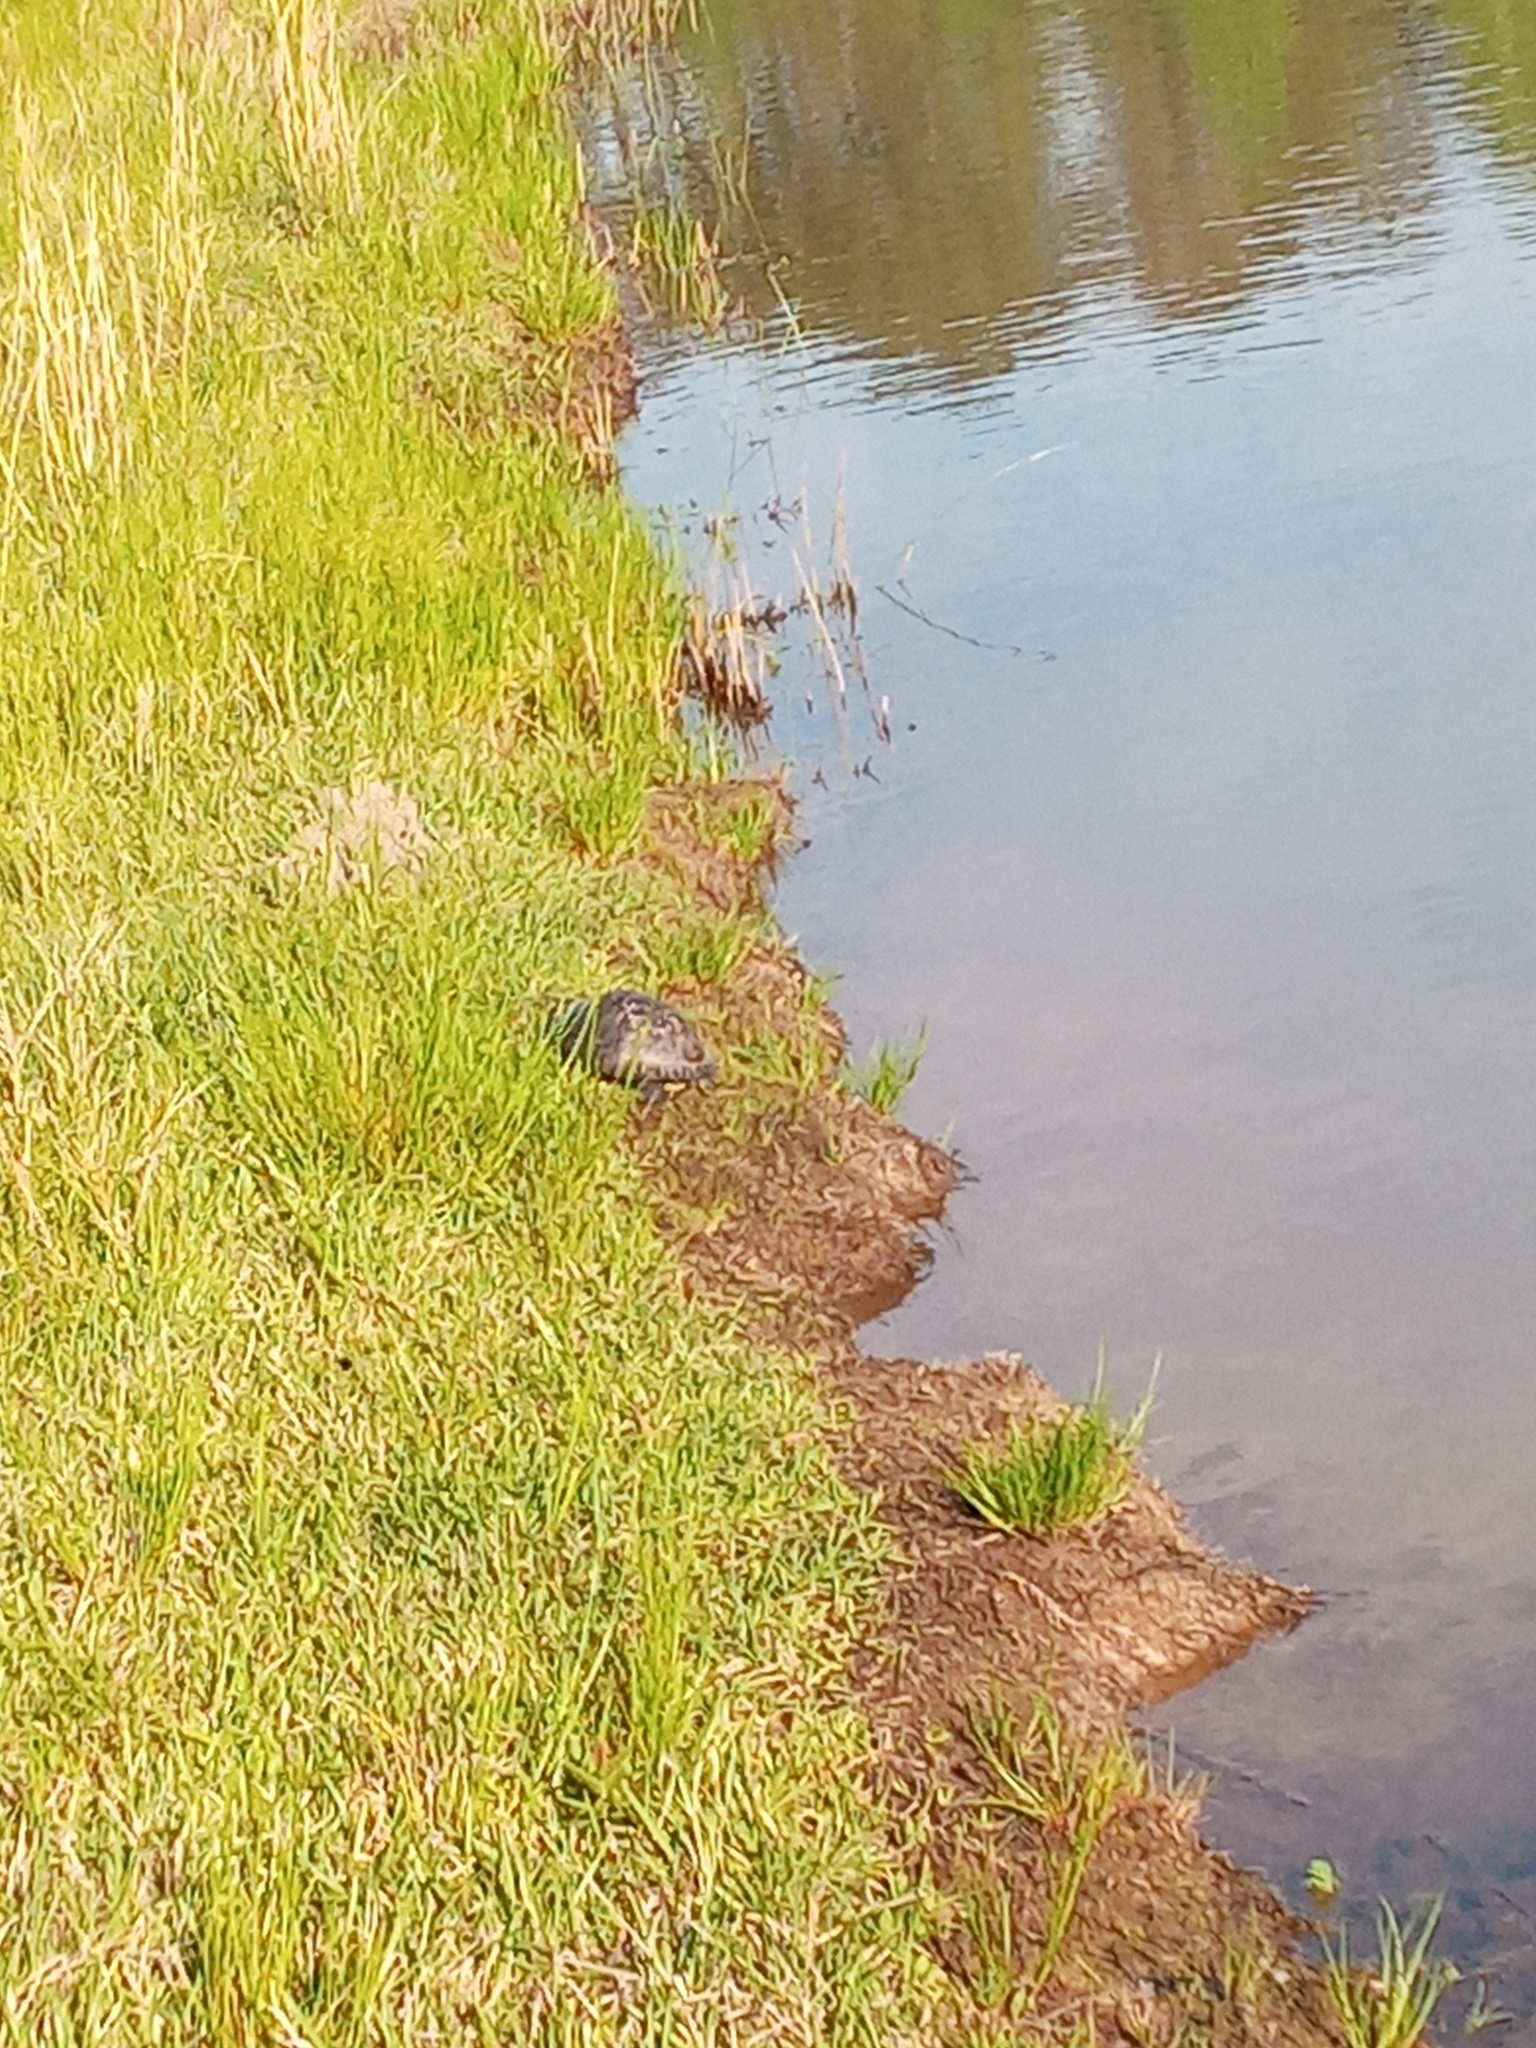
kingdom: Animalia
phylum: Chordata
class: Testudines
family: Emydidae
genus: Trachemys
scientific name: Trachemys scripta
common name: Slider
